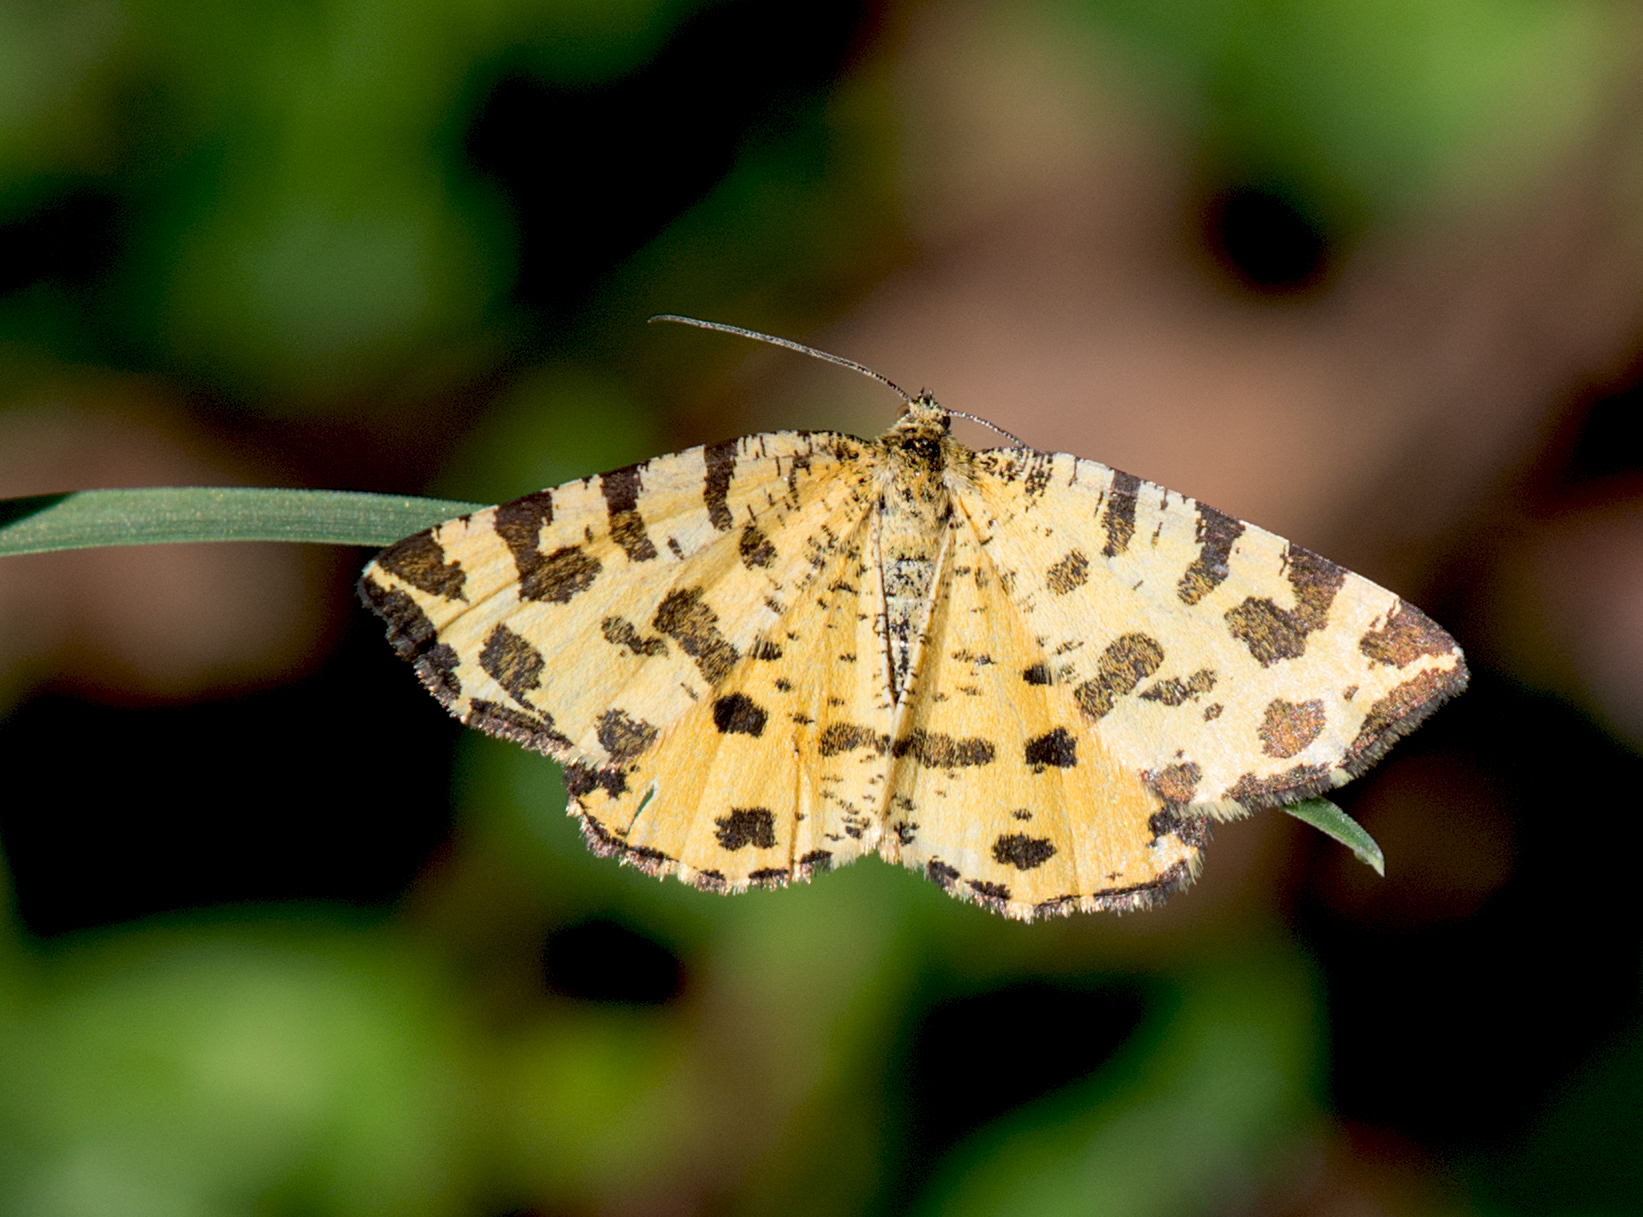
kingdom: Animalia
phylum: Arthropoda
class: Insecta
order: Lepidoptera
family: Geometridae
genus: Pseudopanthera
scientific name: Pseudopanthera macularia
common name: Speckled yellow
